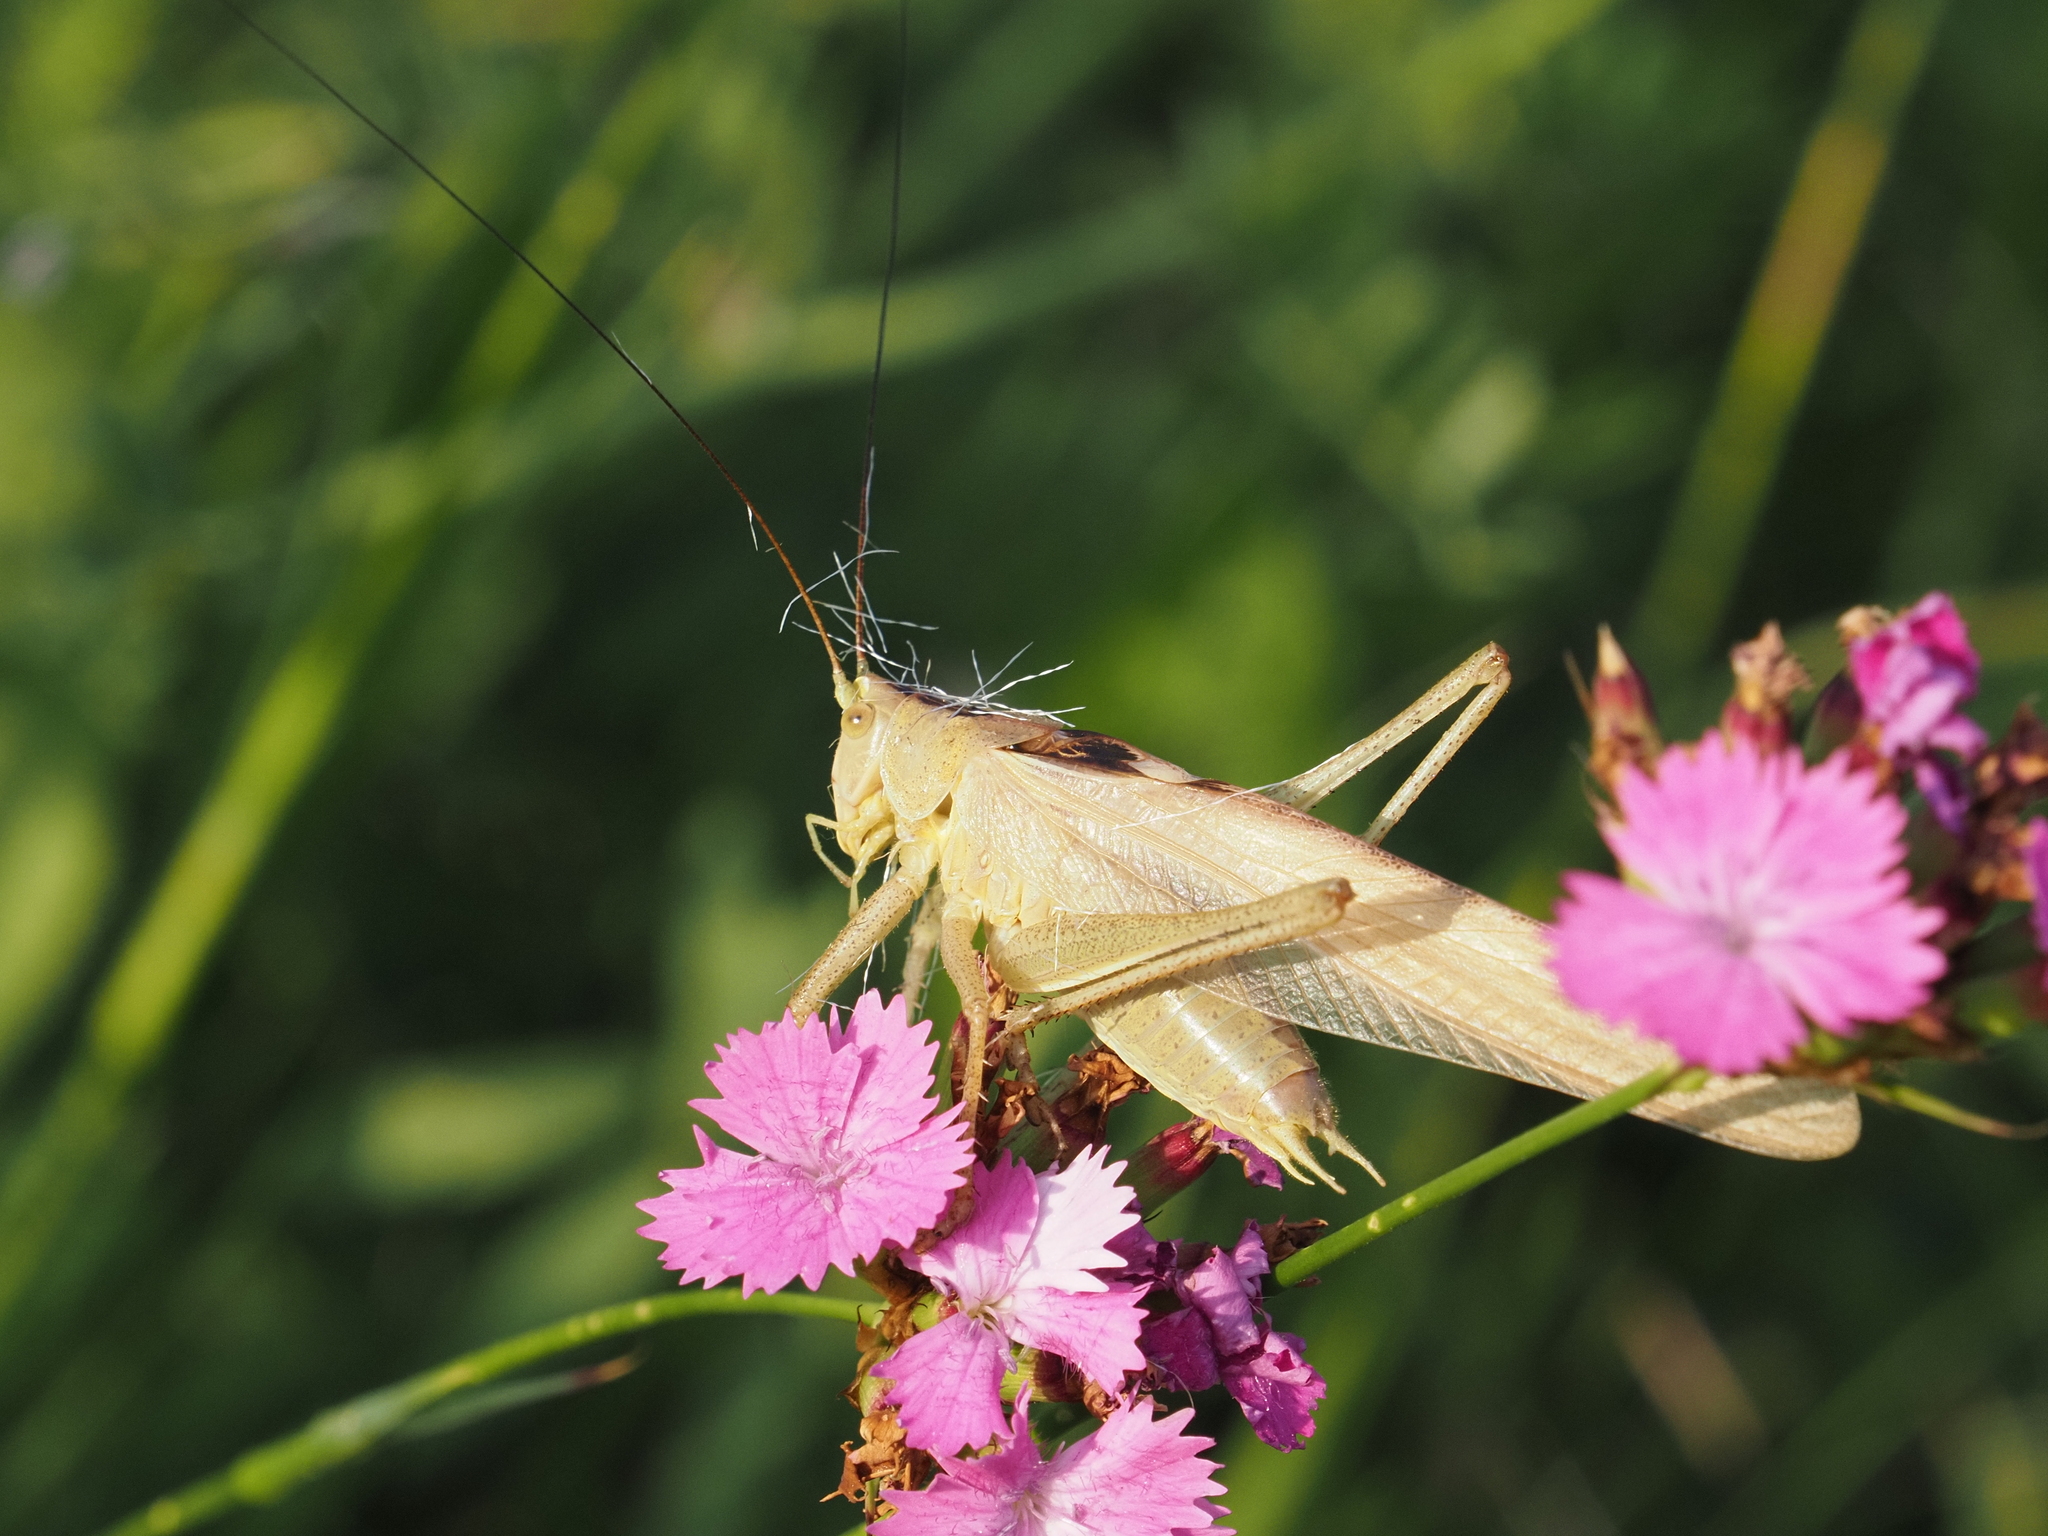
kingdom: Animalia
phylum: Arthropoda
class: Insecta
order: Orthoptera
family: Tettigoniidae
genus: Tettigonia
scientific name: Tettigonia viridissima
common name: Great green bush-cricket
